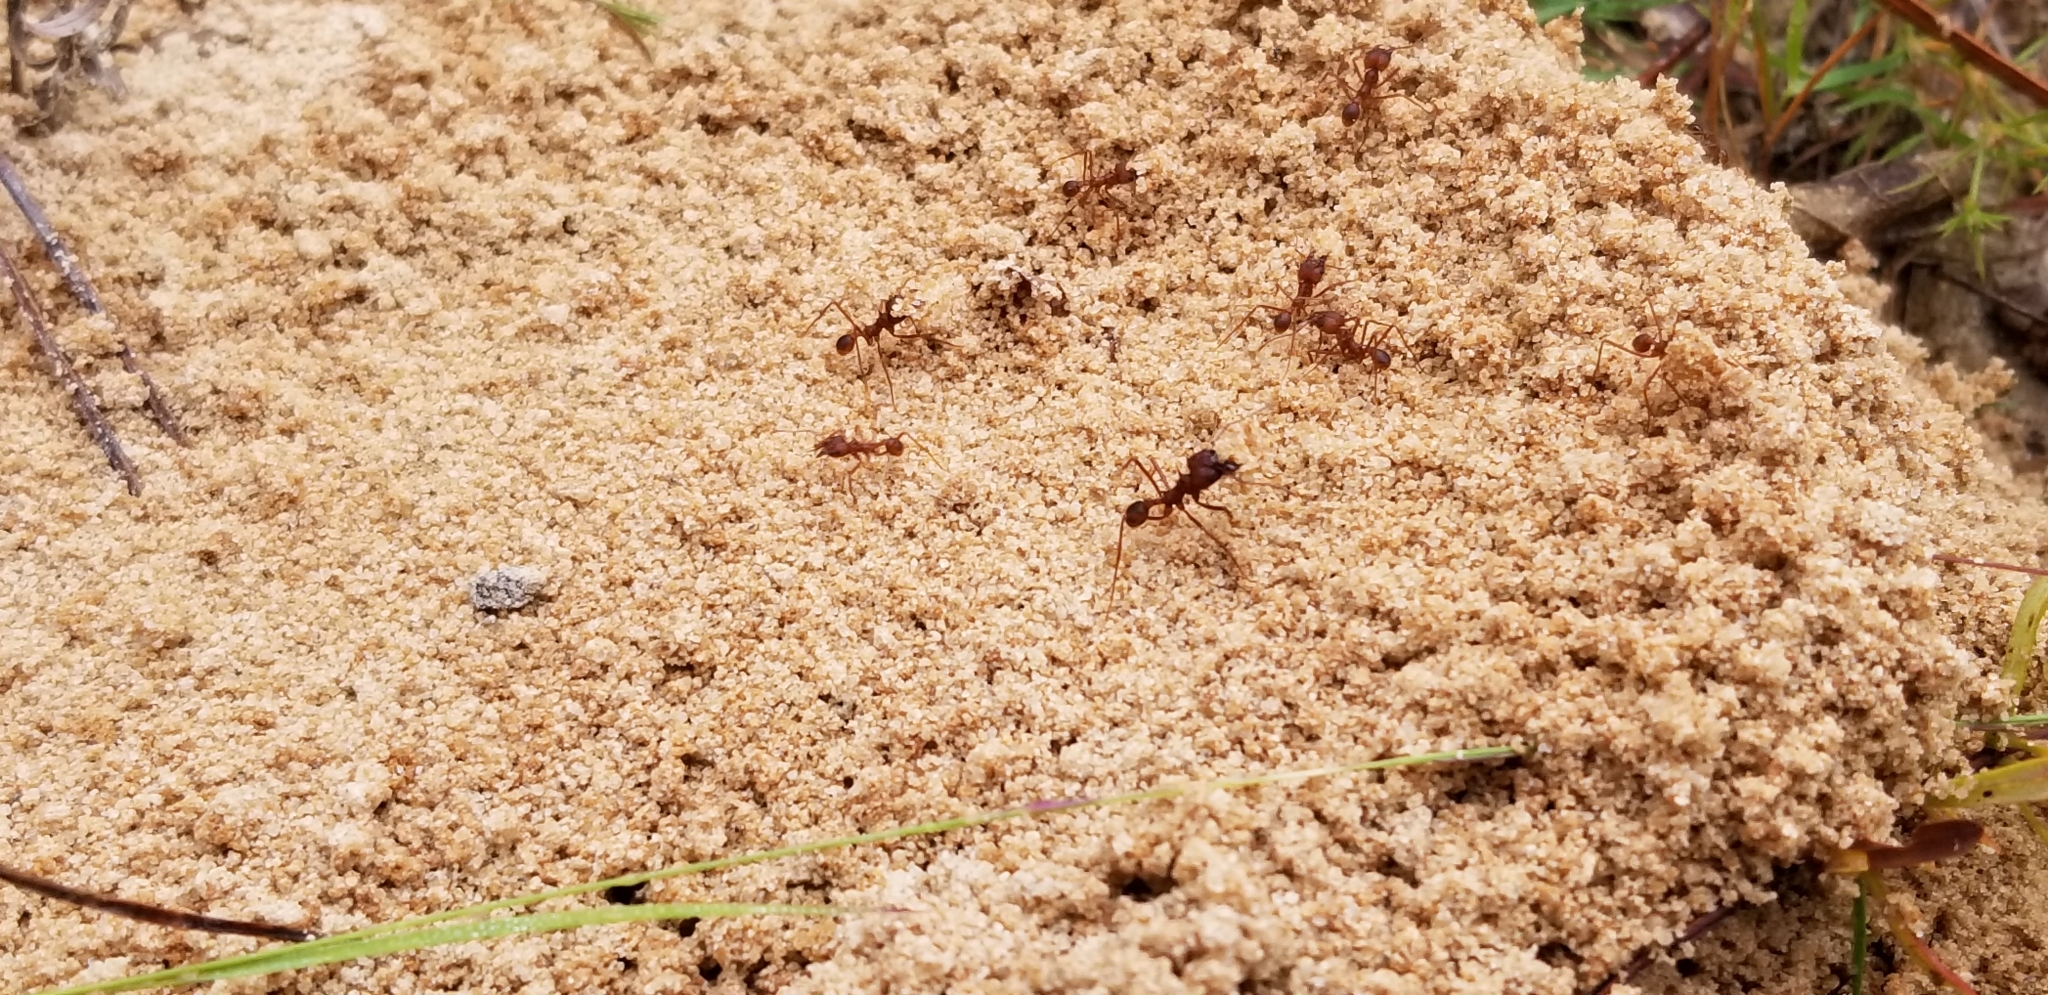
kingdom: Animalia
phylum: Arthropoda
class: Insecta
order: Hymenoptera
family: Formicidae
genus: Atta
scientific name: Atta texana
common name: Texas leafcutting ant
